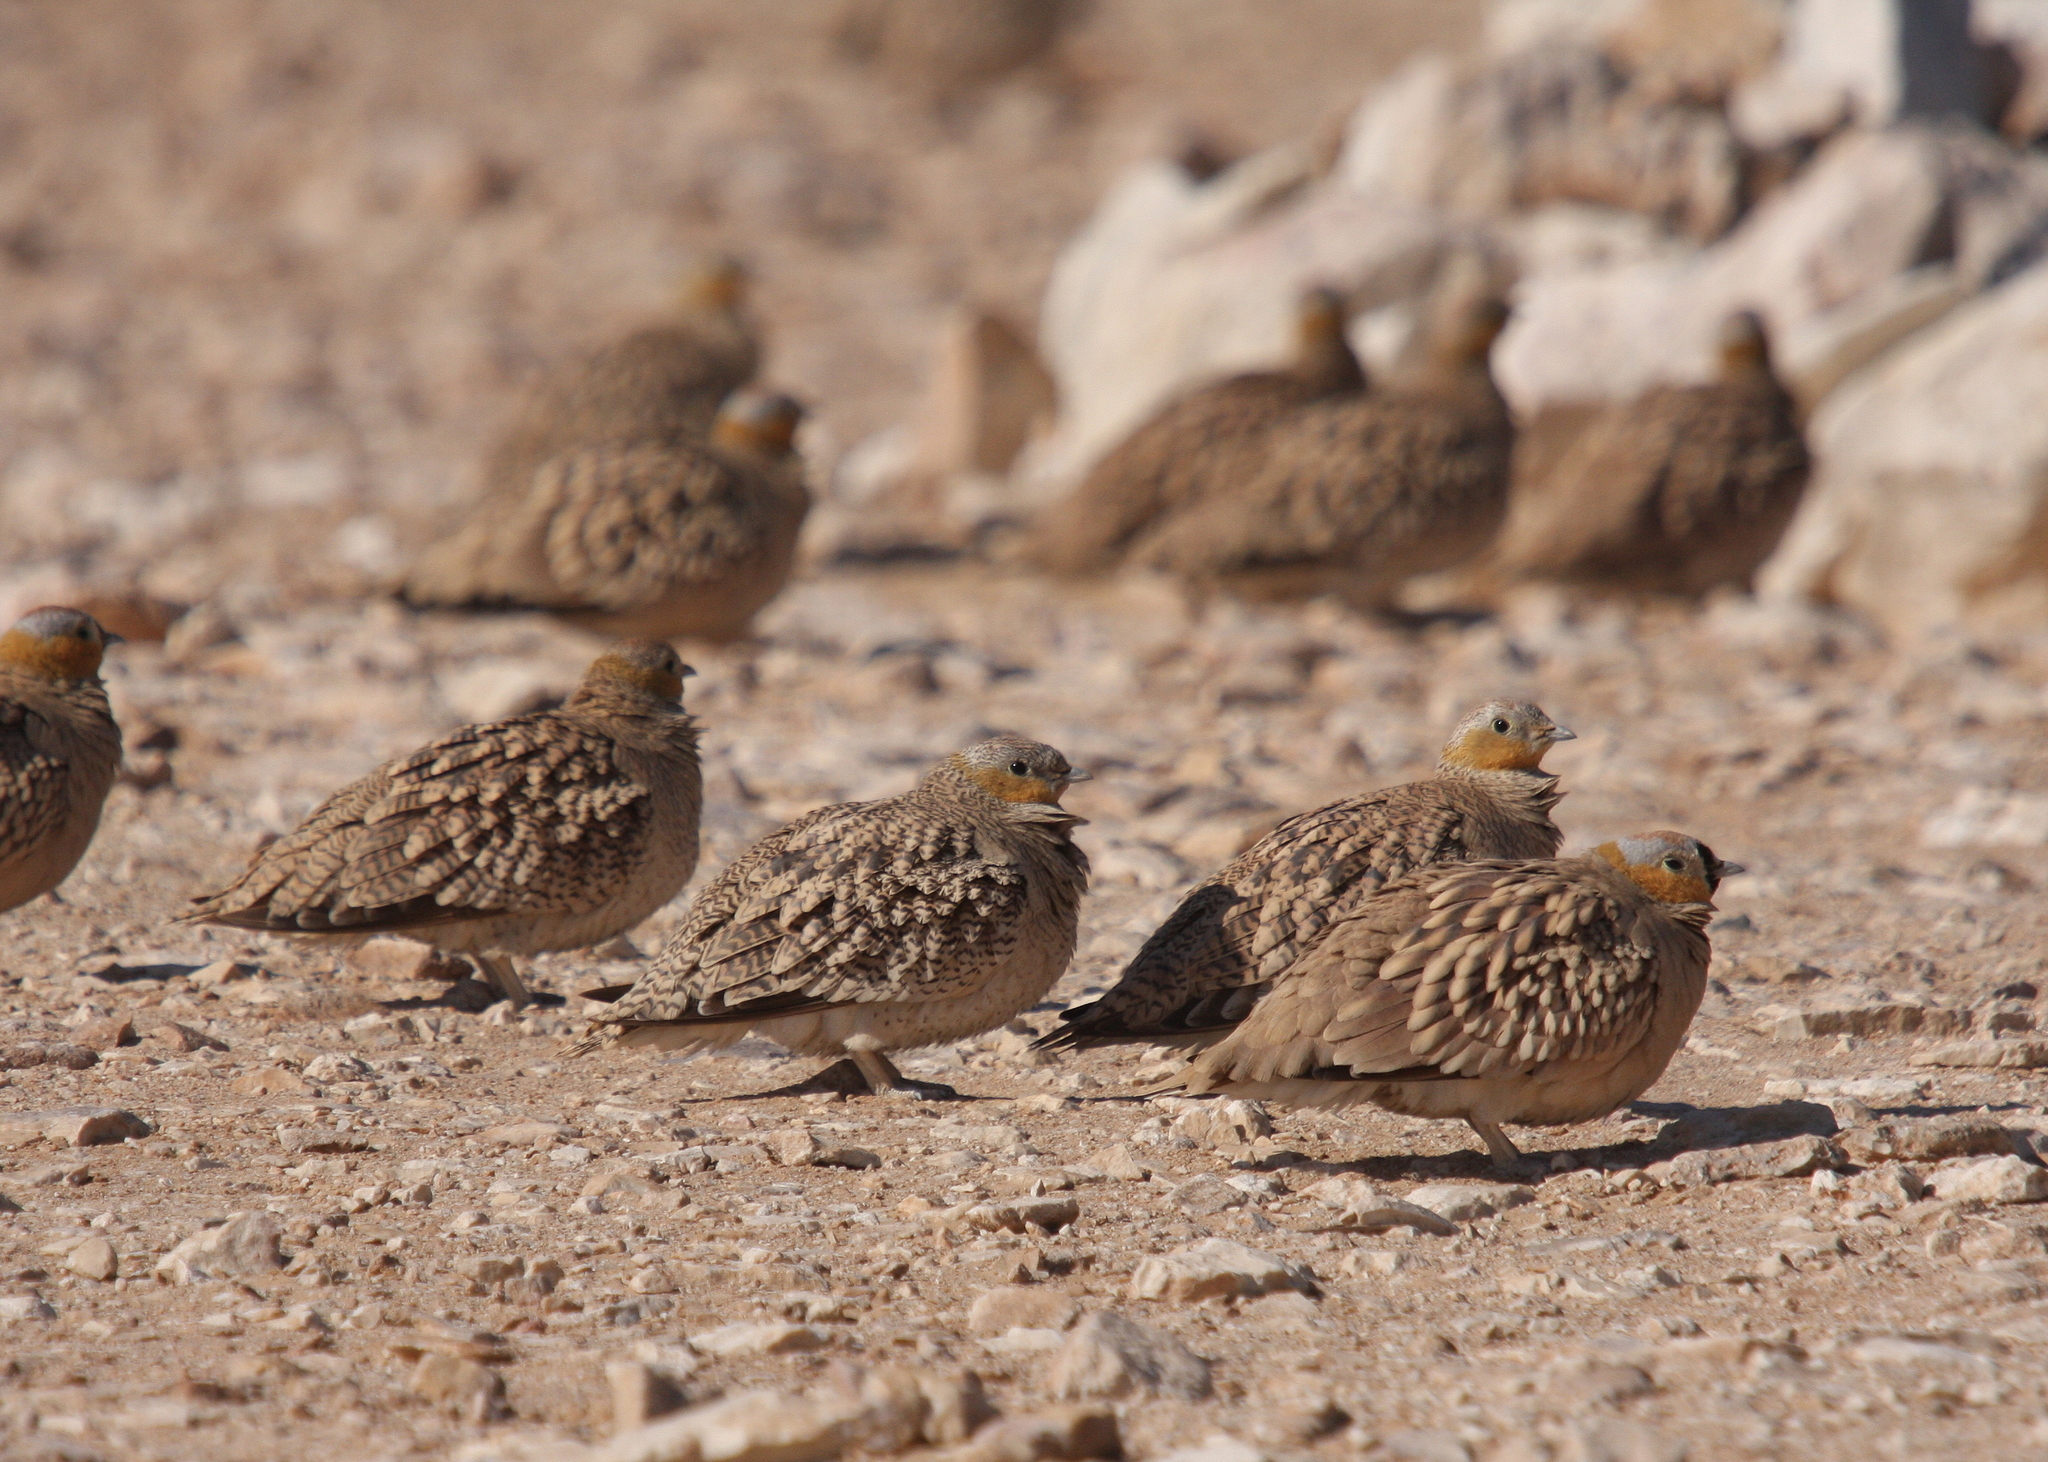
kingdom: Animalia
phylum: Chordata
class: Aves
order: Pteroclidiformes
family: Pteroclididae
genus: Pterocles
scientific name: Pterocles coronatus
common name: Crowned sandgrouse
